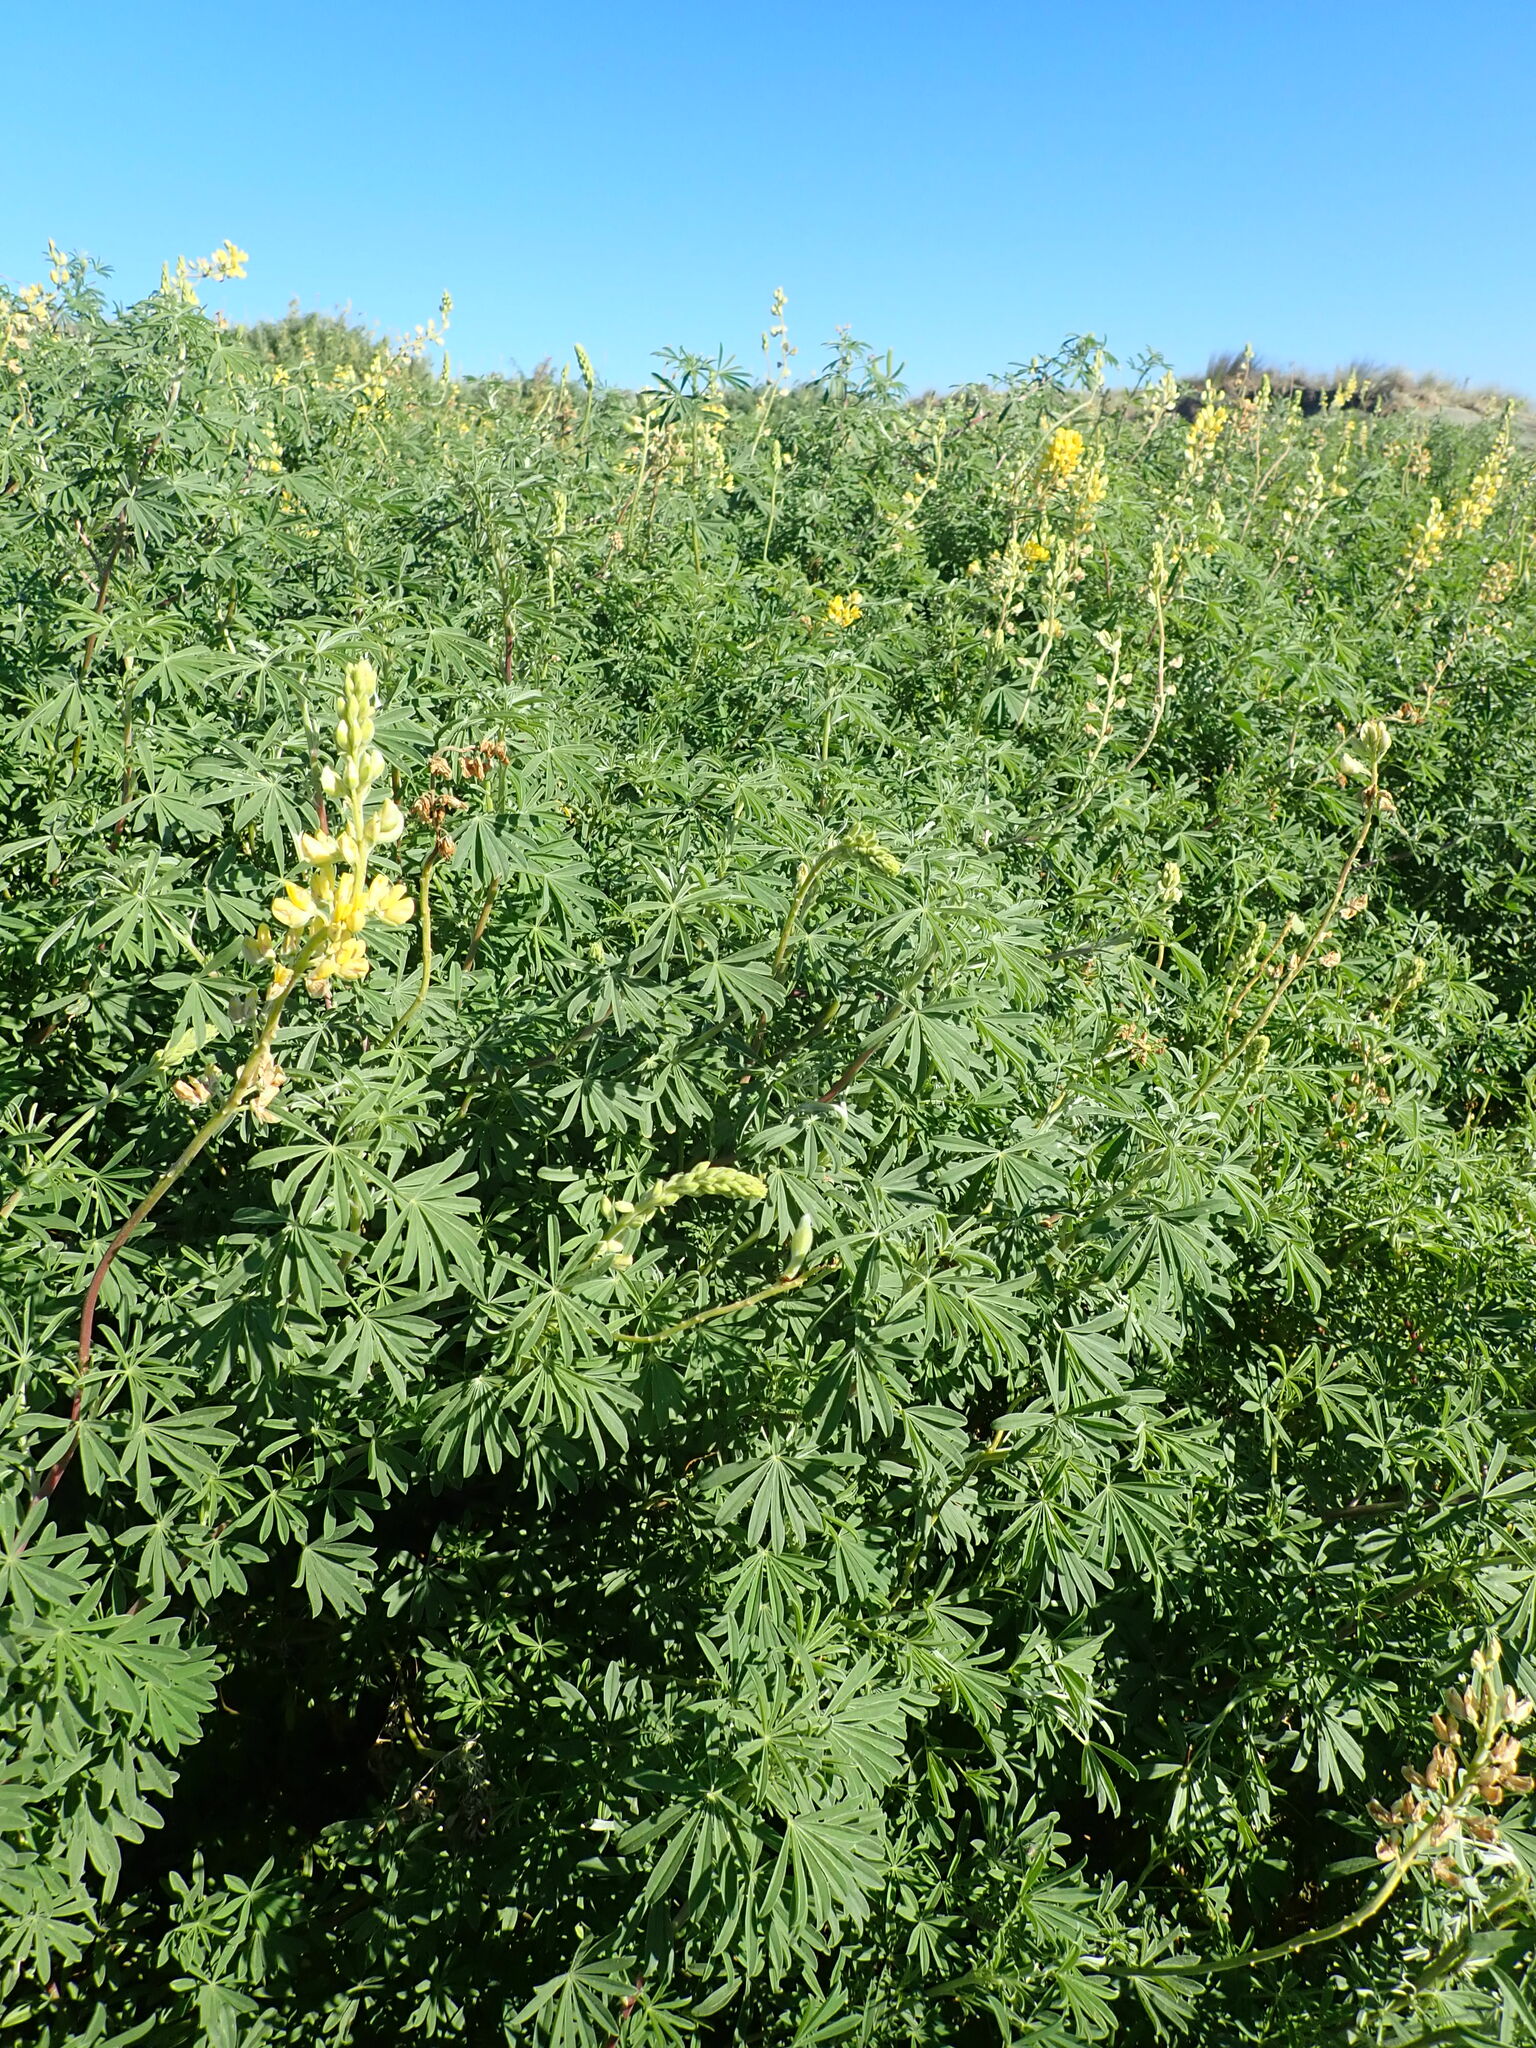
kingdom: Plantae
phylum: Tracheophyta
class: Magnoliopsida
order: Fabales
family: Fabaceae
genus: Lupinus
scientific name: Lupinus arboreus
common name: Yellow bush lupine
